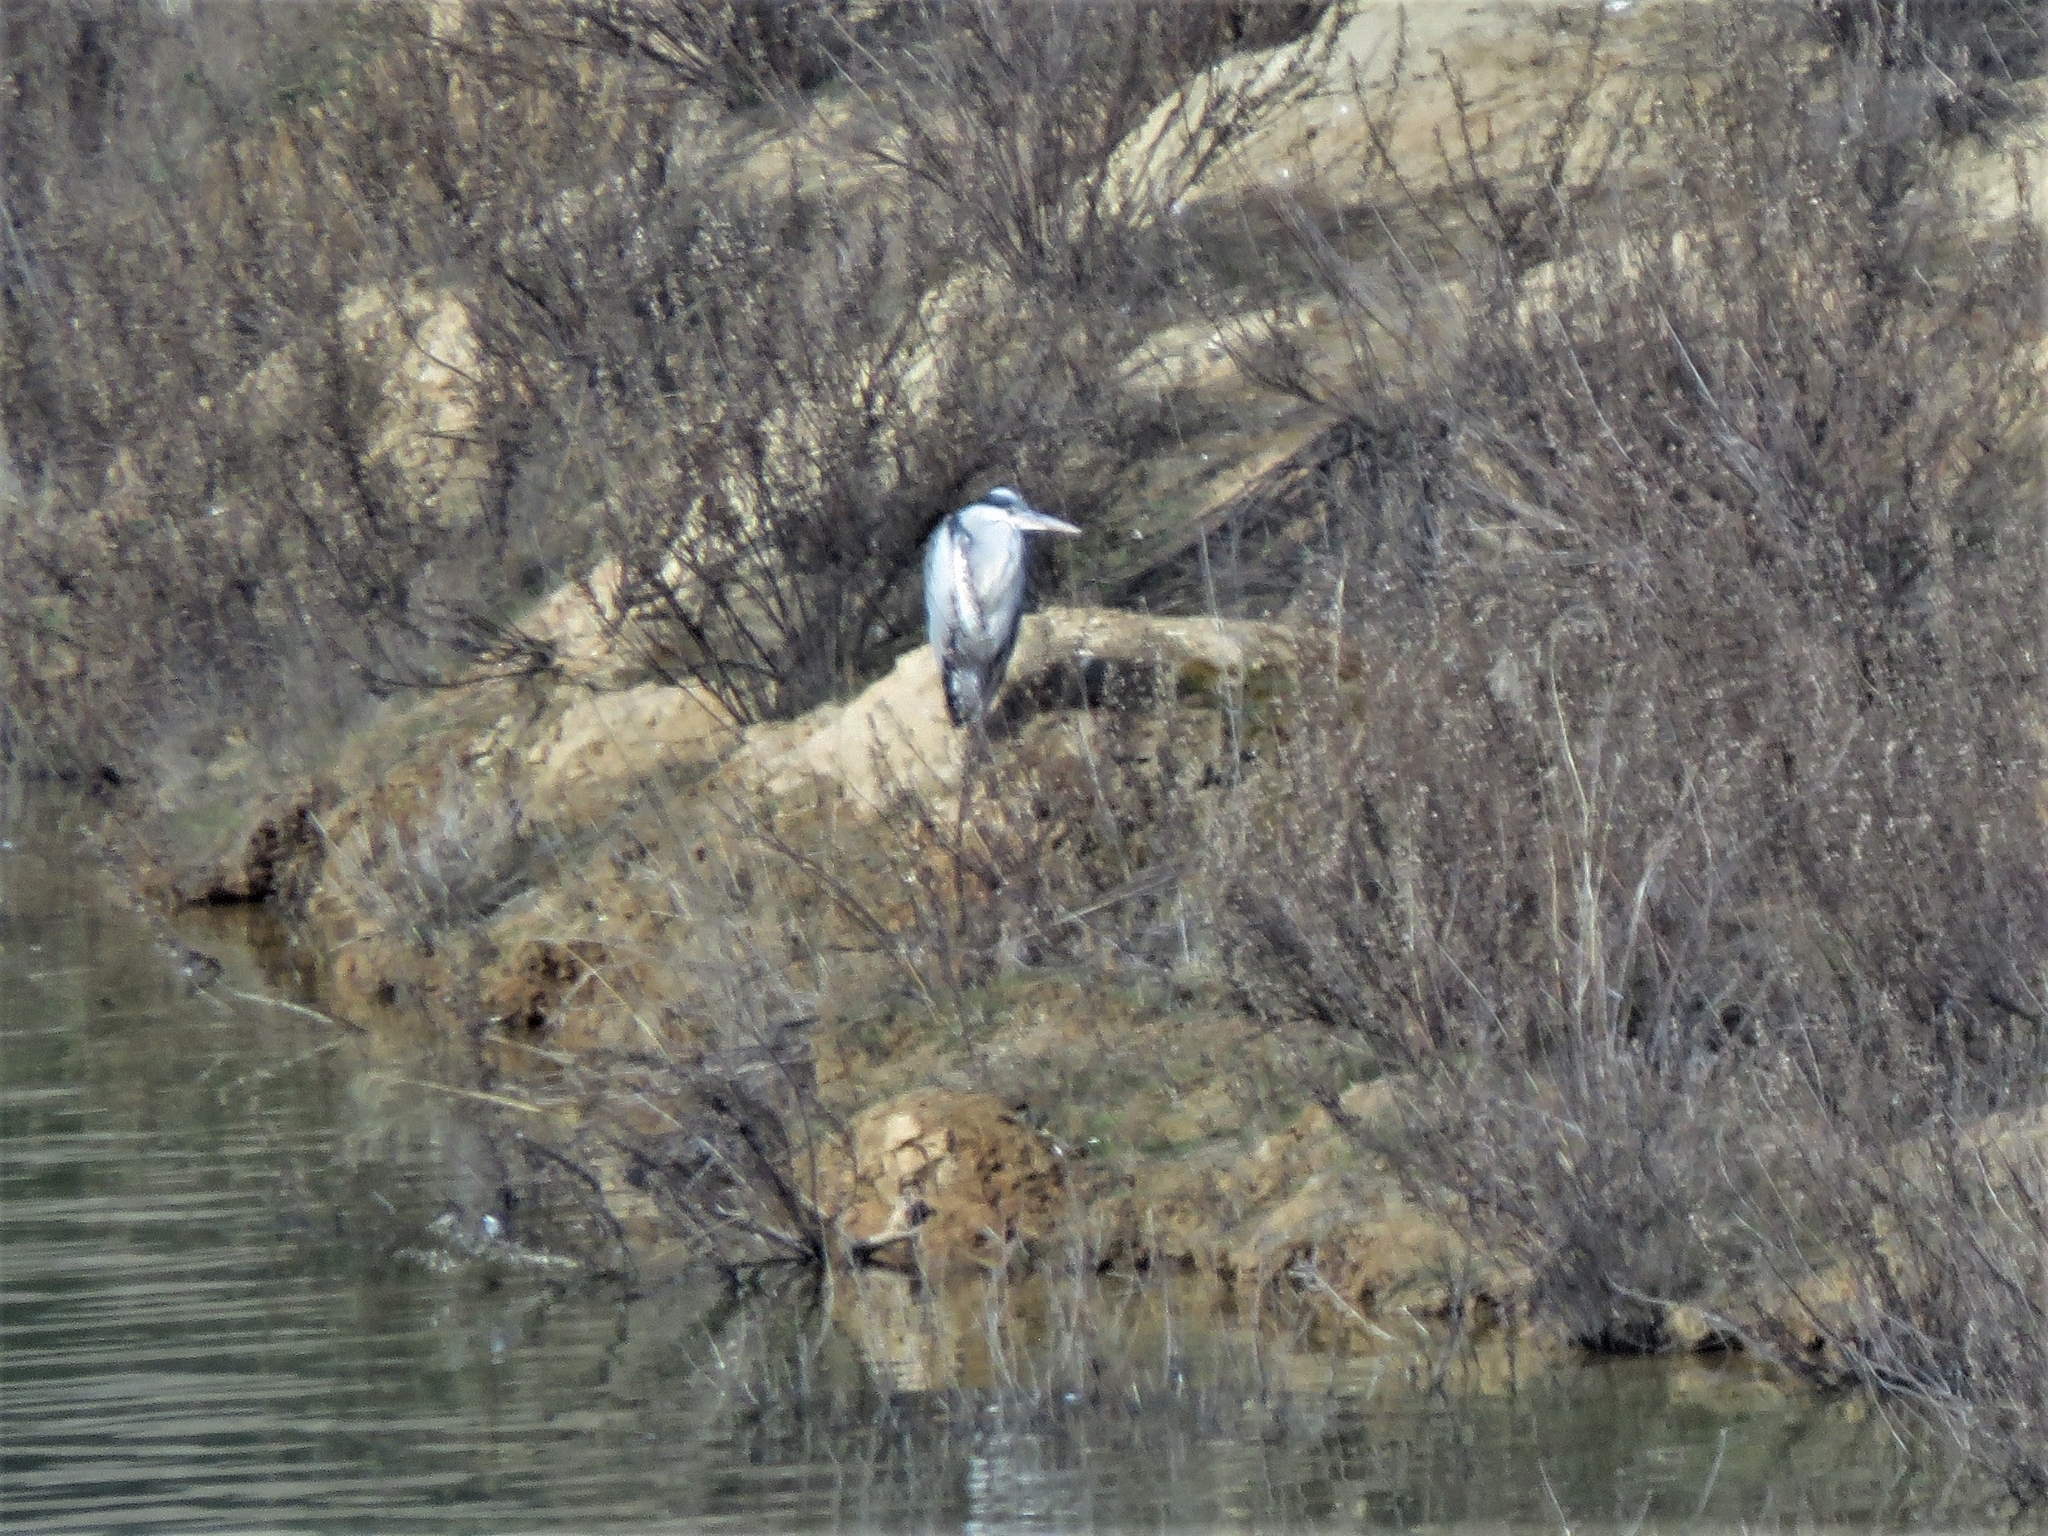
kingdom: Animalia
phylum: Chordata
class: Aves
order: Pelecaniformes
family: Ardeidae
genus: Ardea
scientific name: Ardea cinerea
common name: Grey heron
